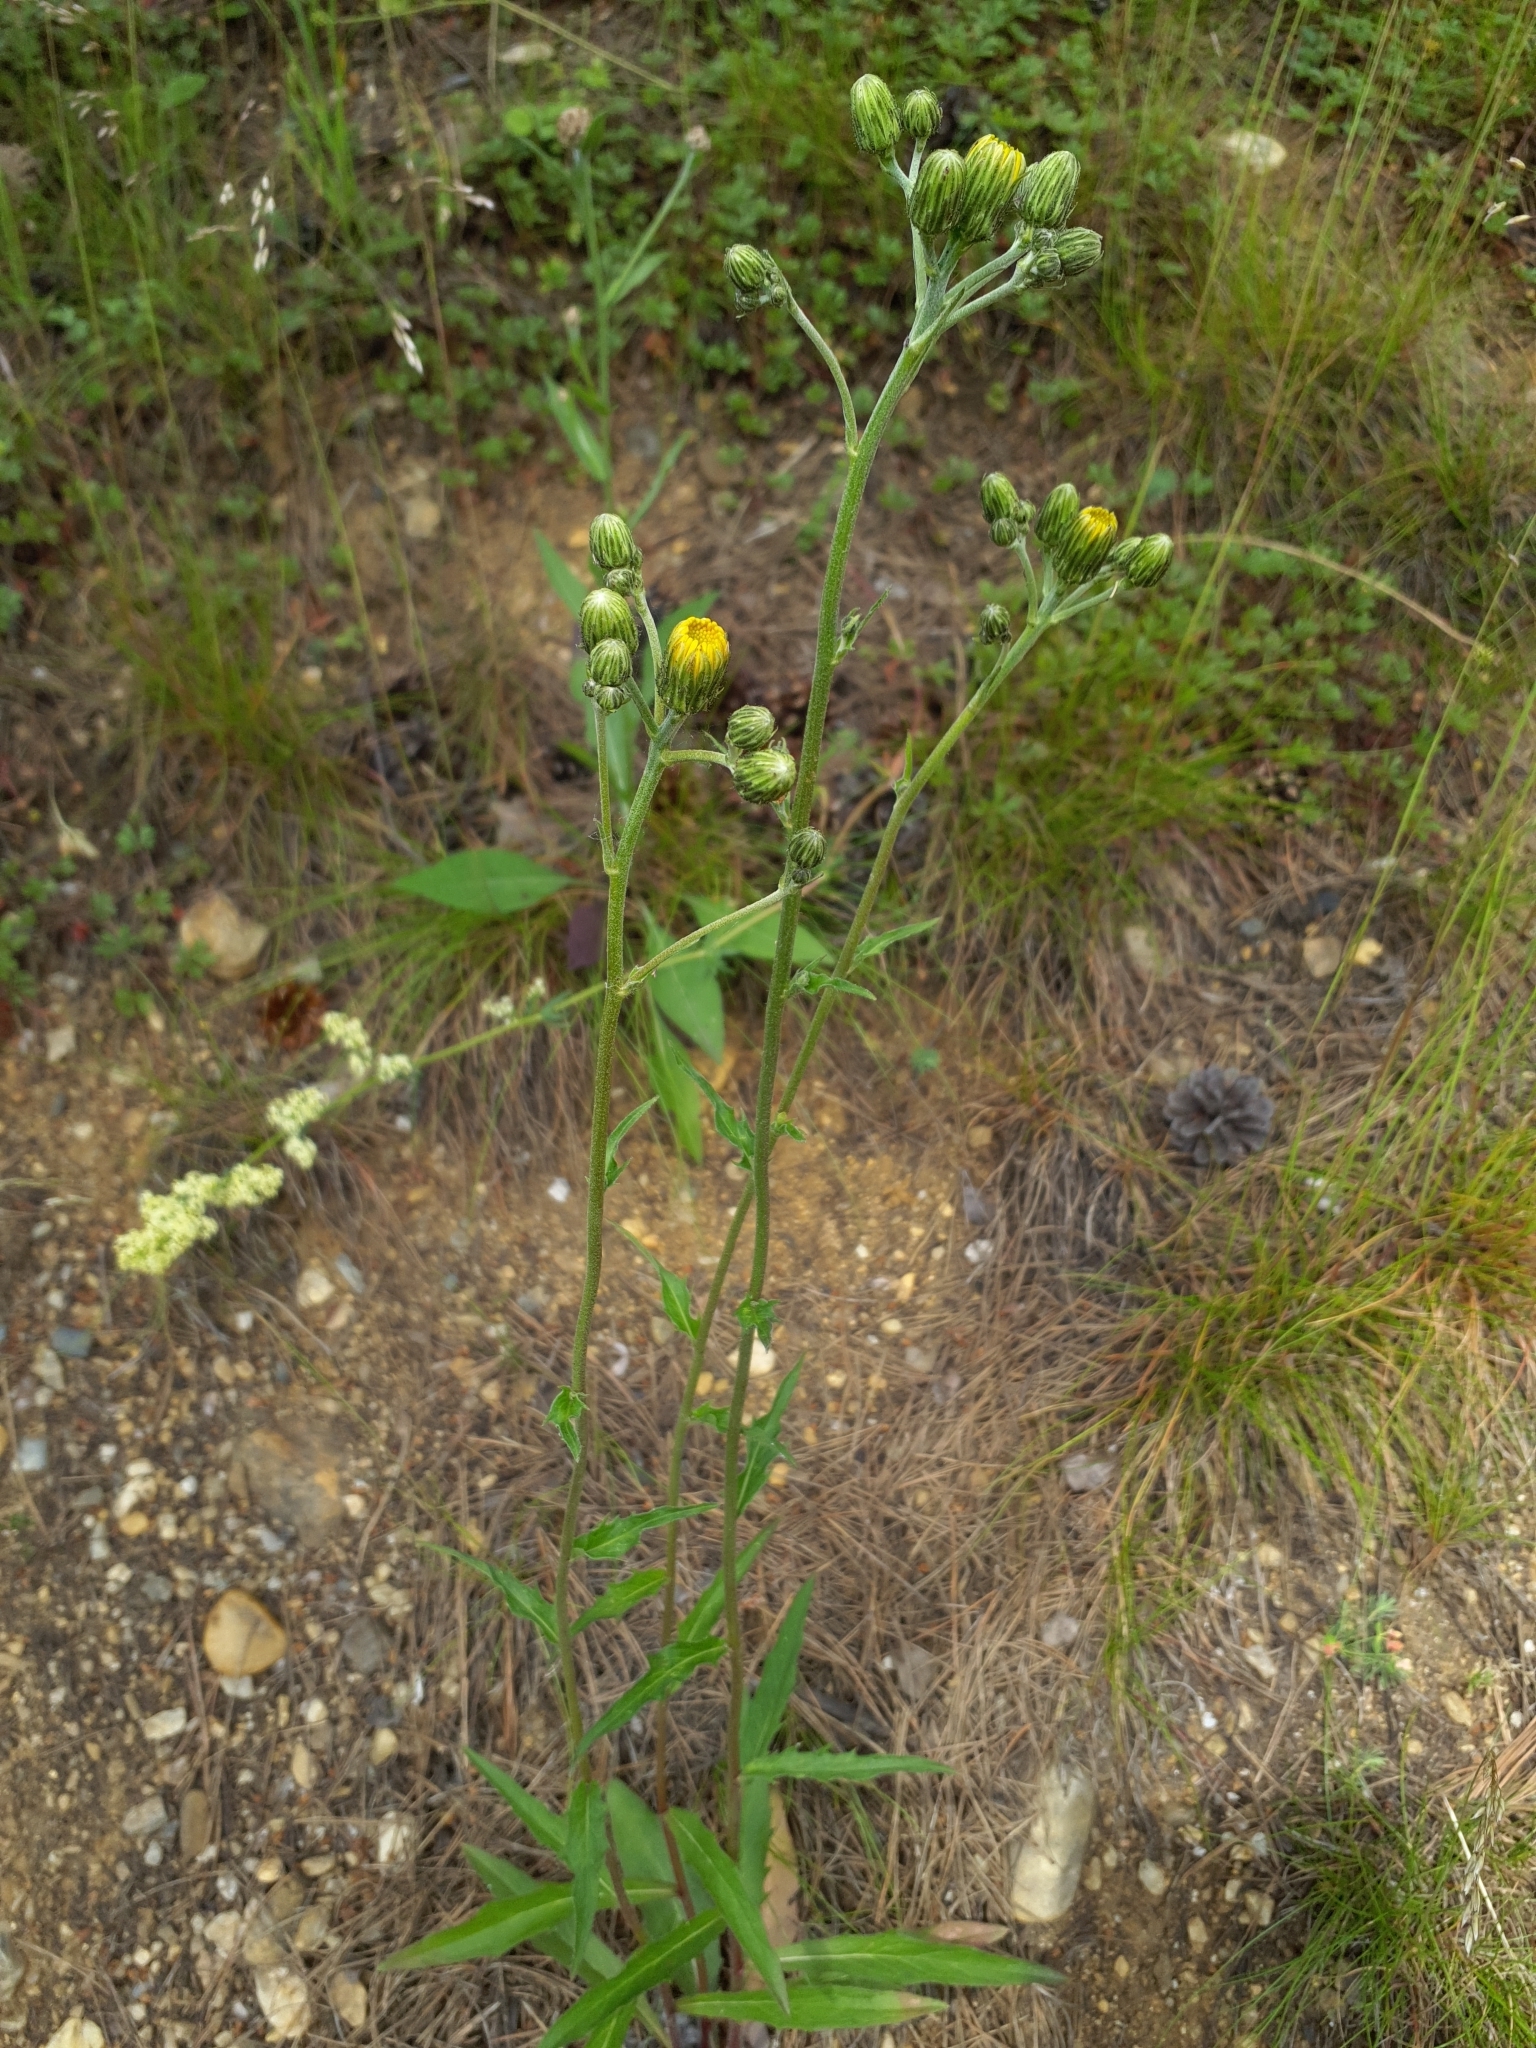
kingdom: Plantae
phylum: Tracheophyta
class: Magnoliopsida
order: Asterales
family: Asteraceae
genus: Hieracium
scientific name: Hieracium laevigatum
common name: Smooth hawkweed
